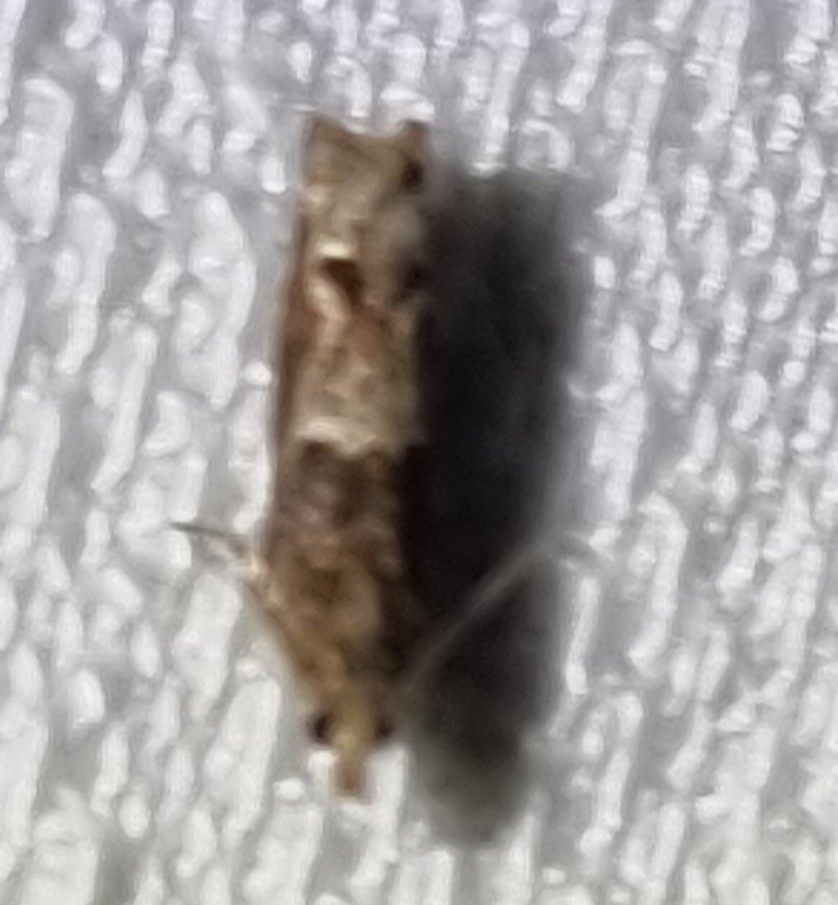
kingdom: Animalia
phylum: Arthropoda
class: Insecta
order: Lepidoptera
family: Tortricidae
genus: Crocidosema
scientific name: Crocidosema plebejana
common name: Southern bell
